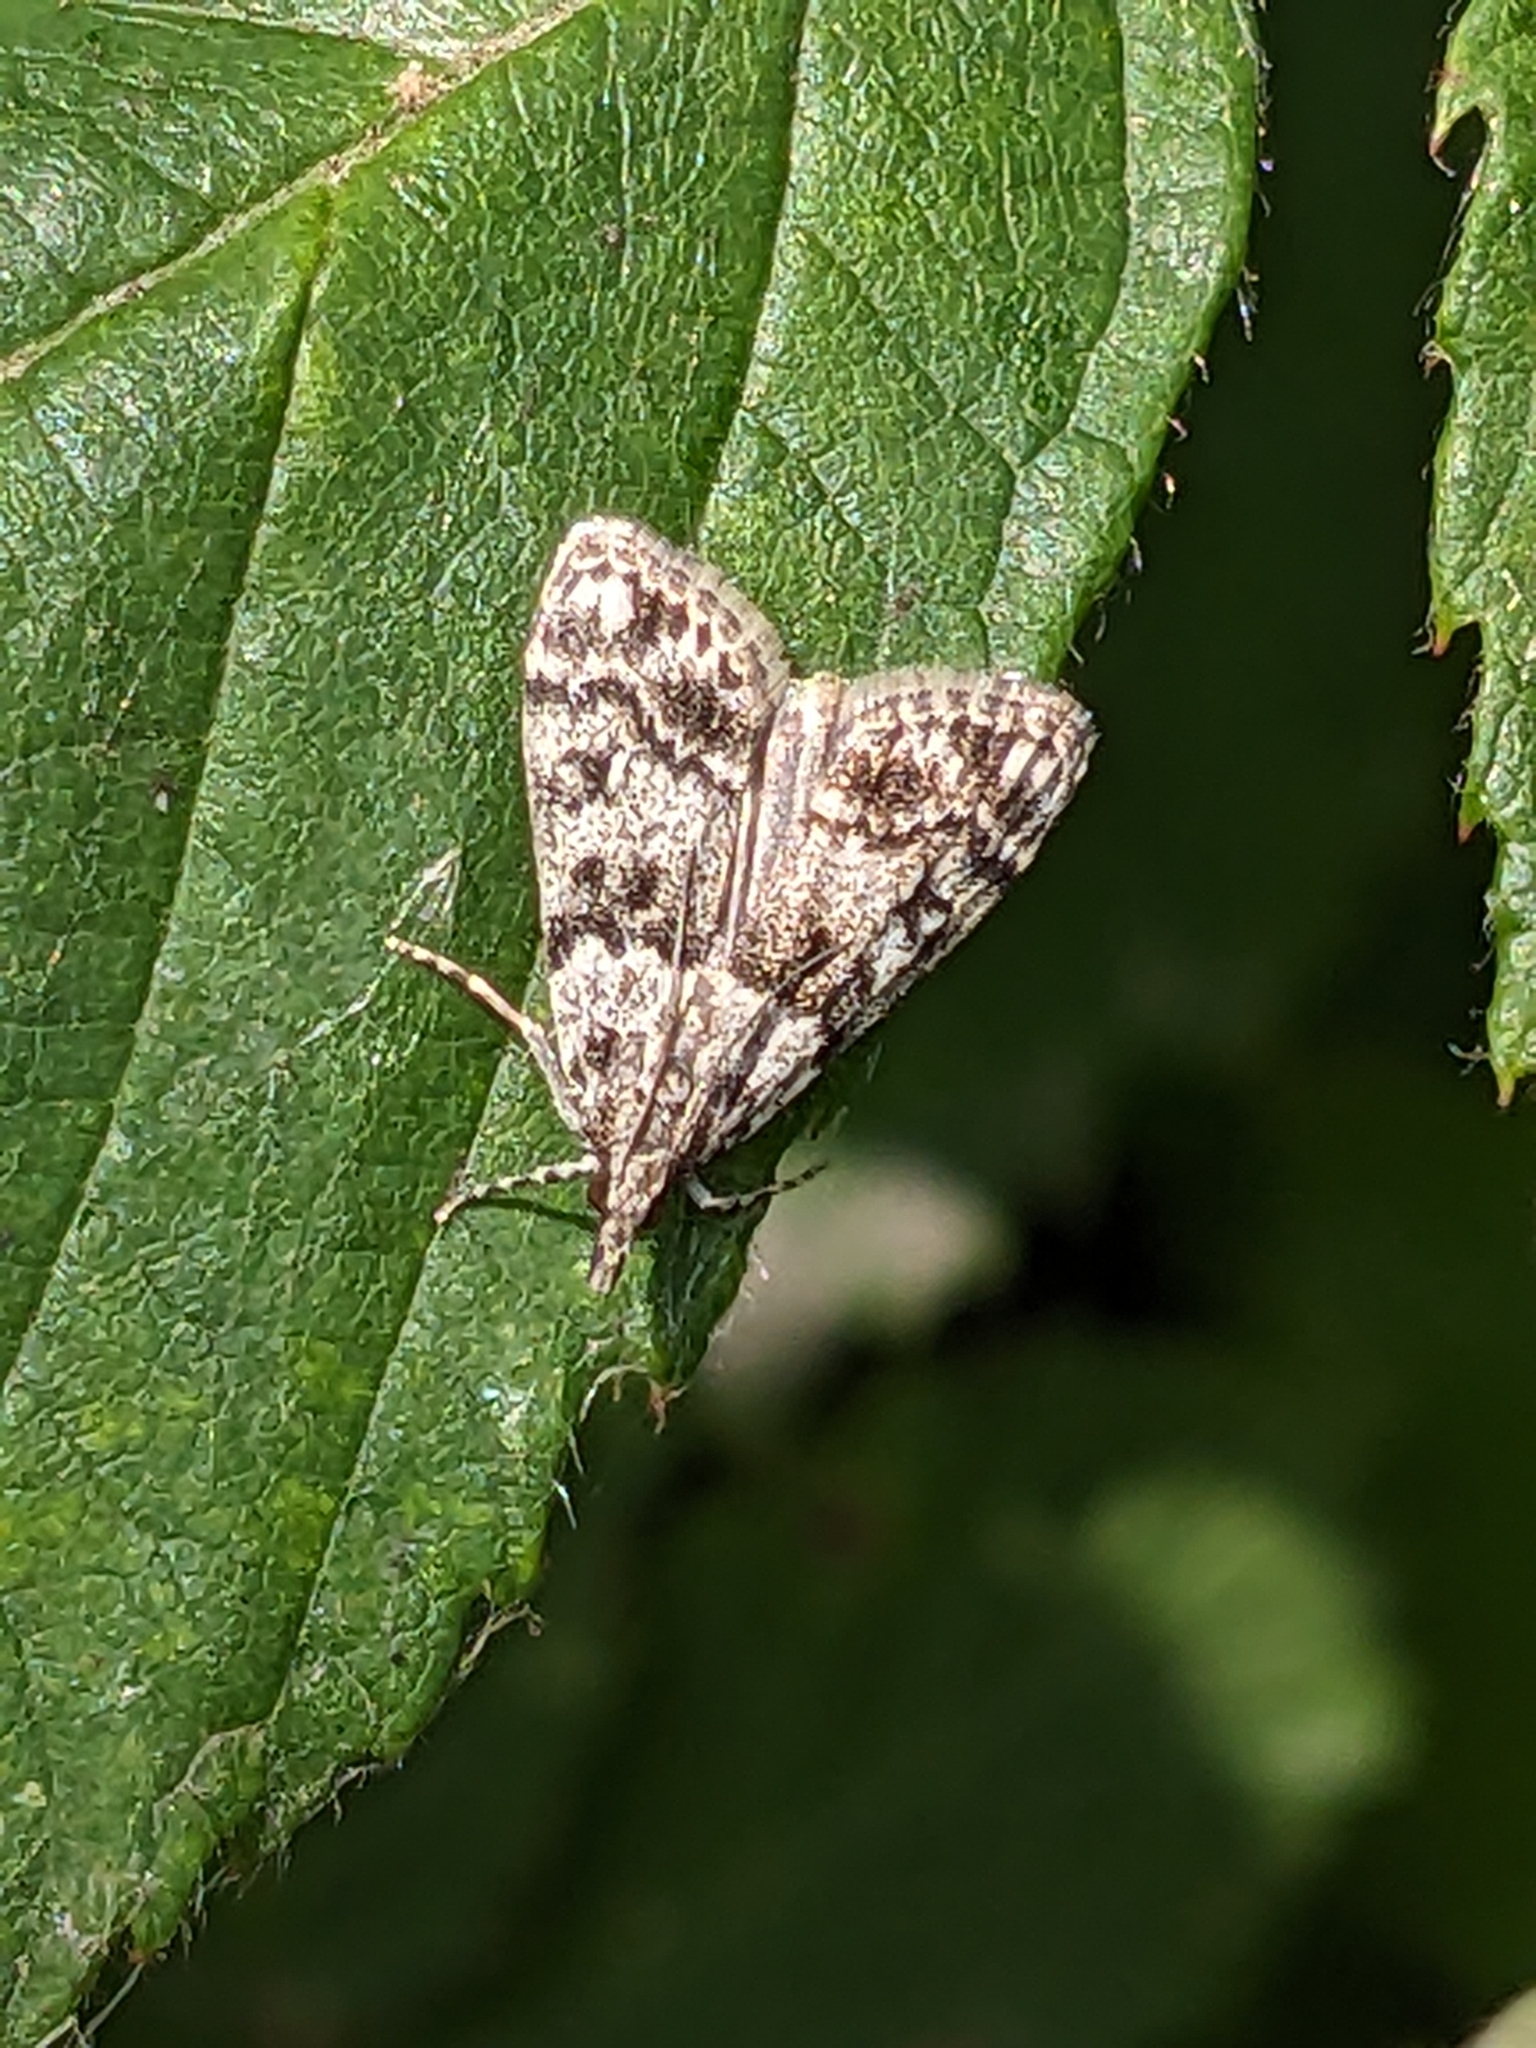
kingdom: Animalia
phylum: Arthropoda
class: Insecta
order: Lepidoptera
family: Crambidae
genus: Eudonia
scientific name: Eudonia lacustrata
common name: Little grey
